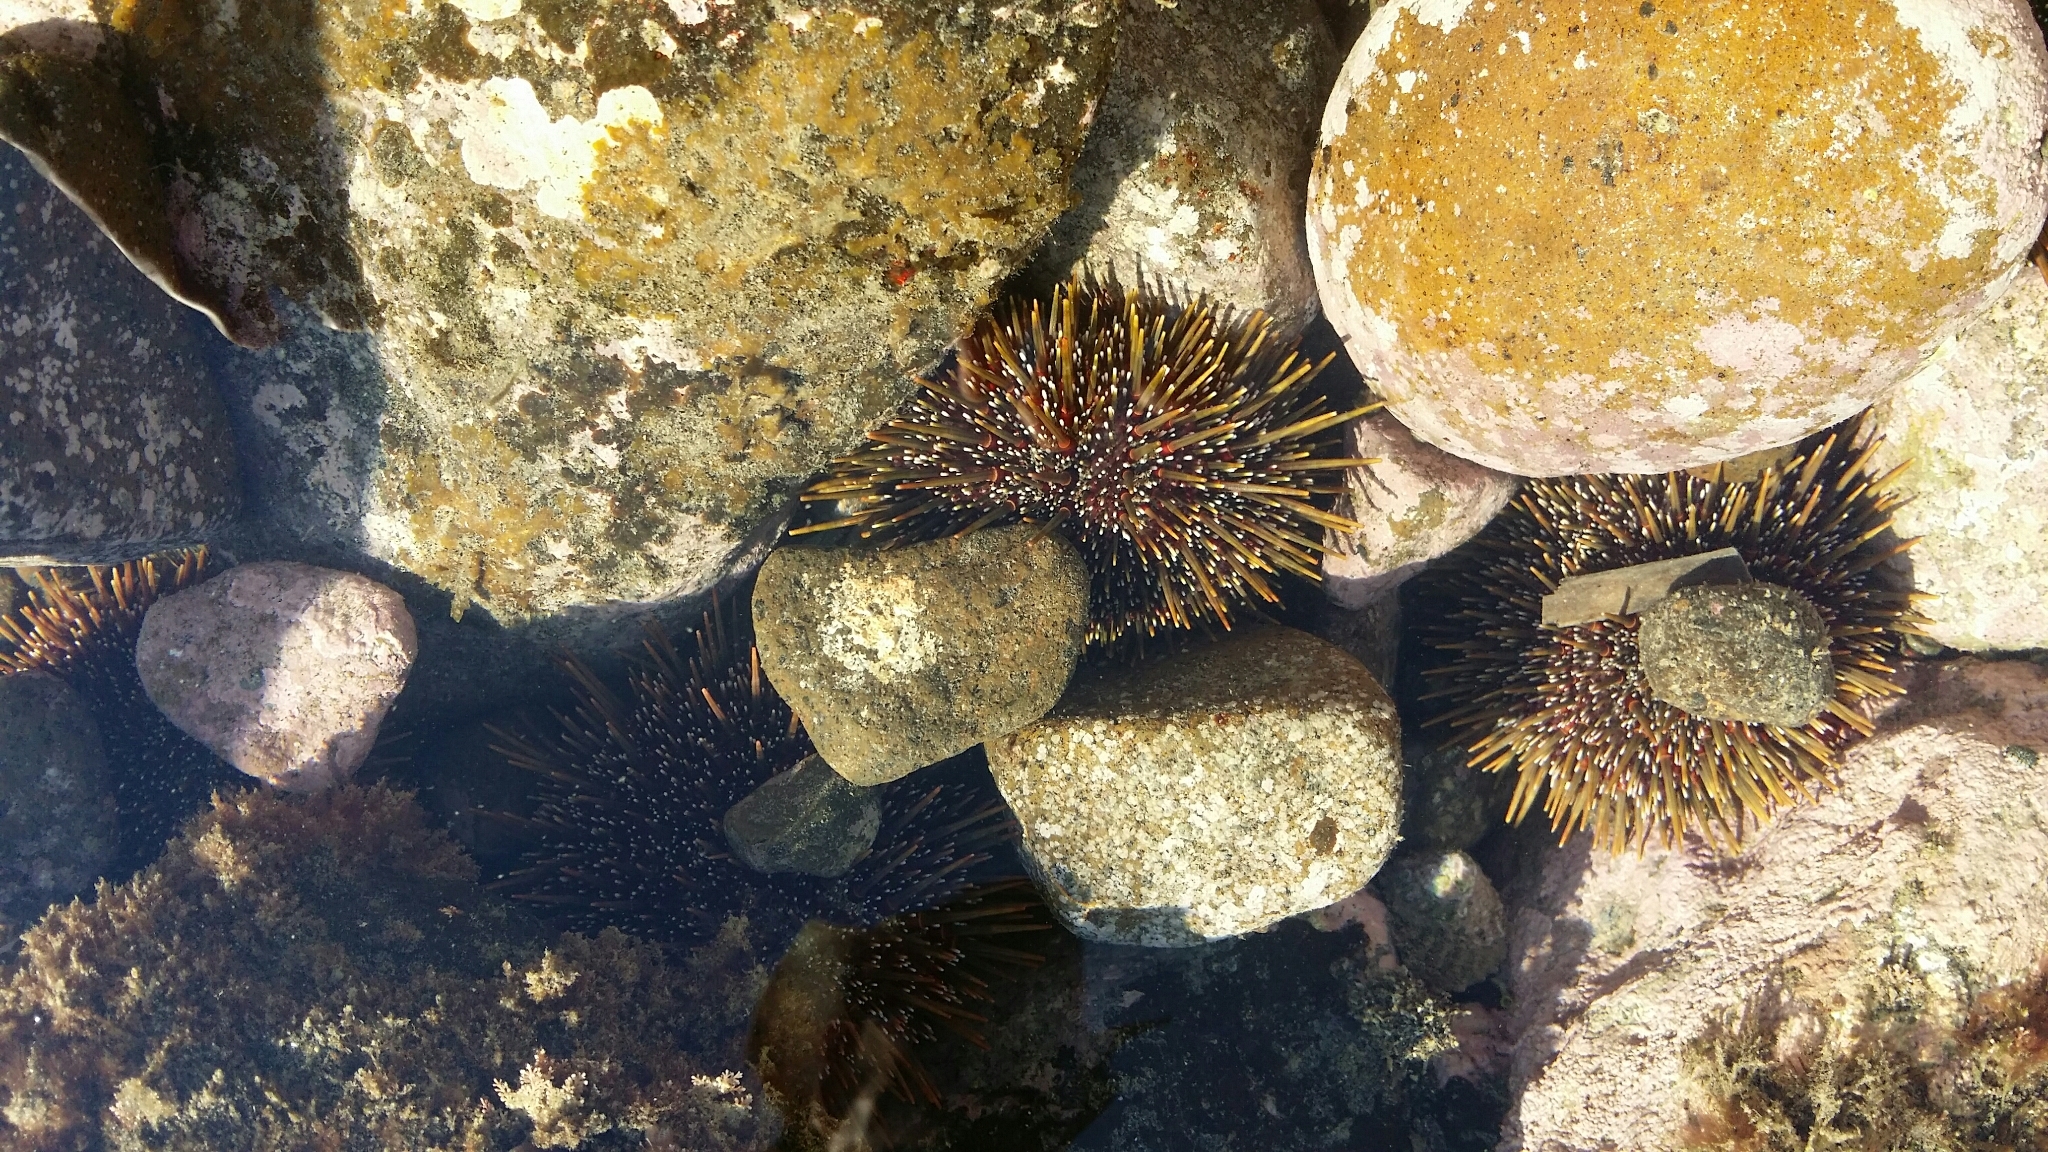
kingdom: Animalia
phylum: Echinodermata
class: Echinoidea
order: Camarodonta
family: Echinometridae
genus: Evechinus
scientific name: Evechinus chloroticus
